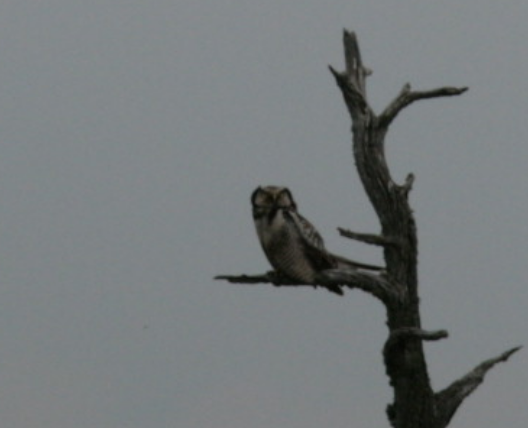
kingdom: Animalia
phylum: Chordata
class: Aves
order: Strigiformes
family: Strigidae
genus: Surnia
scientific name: Surnia ulula
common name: Northern hawk-owl
